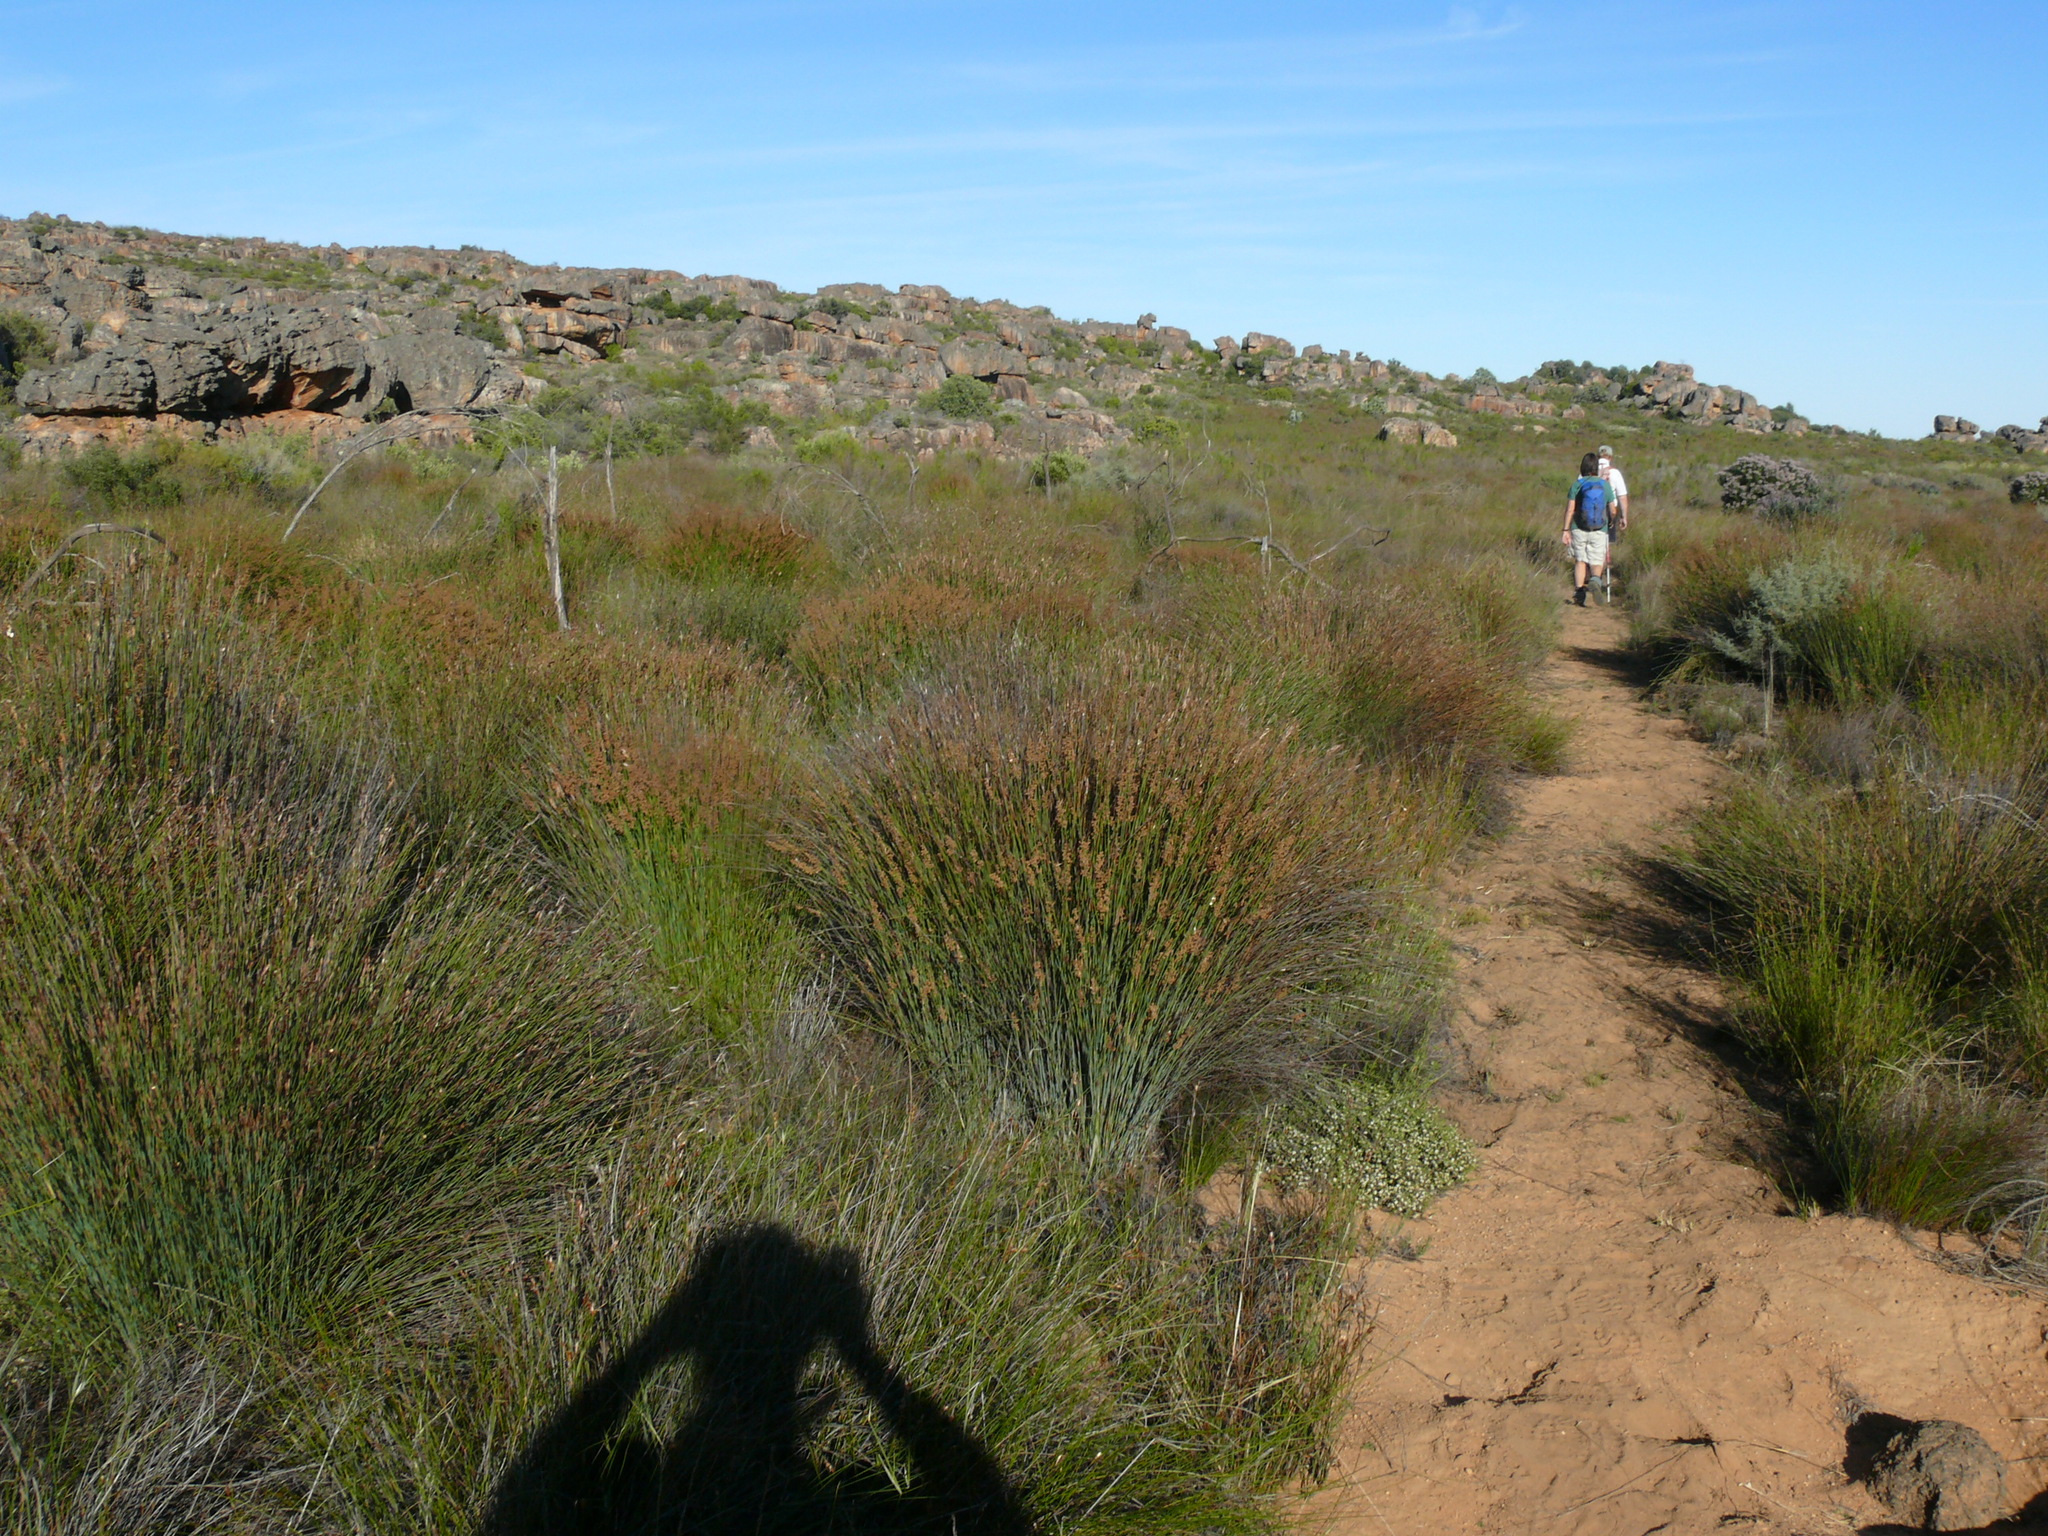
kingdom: Plantae
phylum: Tracheophyta
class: Liliopsida
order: Poales
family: Restionaceae
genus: Cannomois
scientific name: Cannomois primosii
